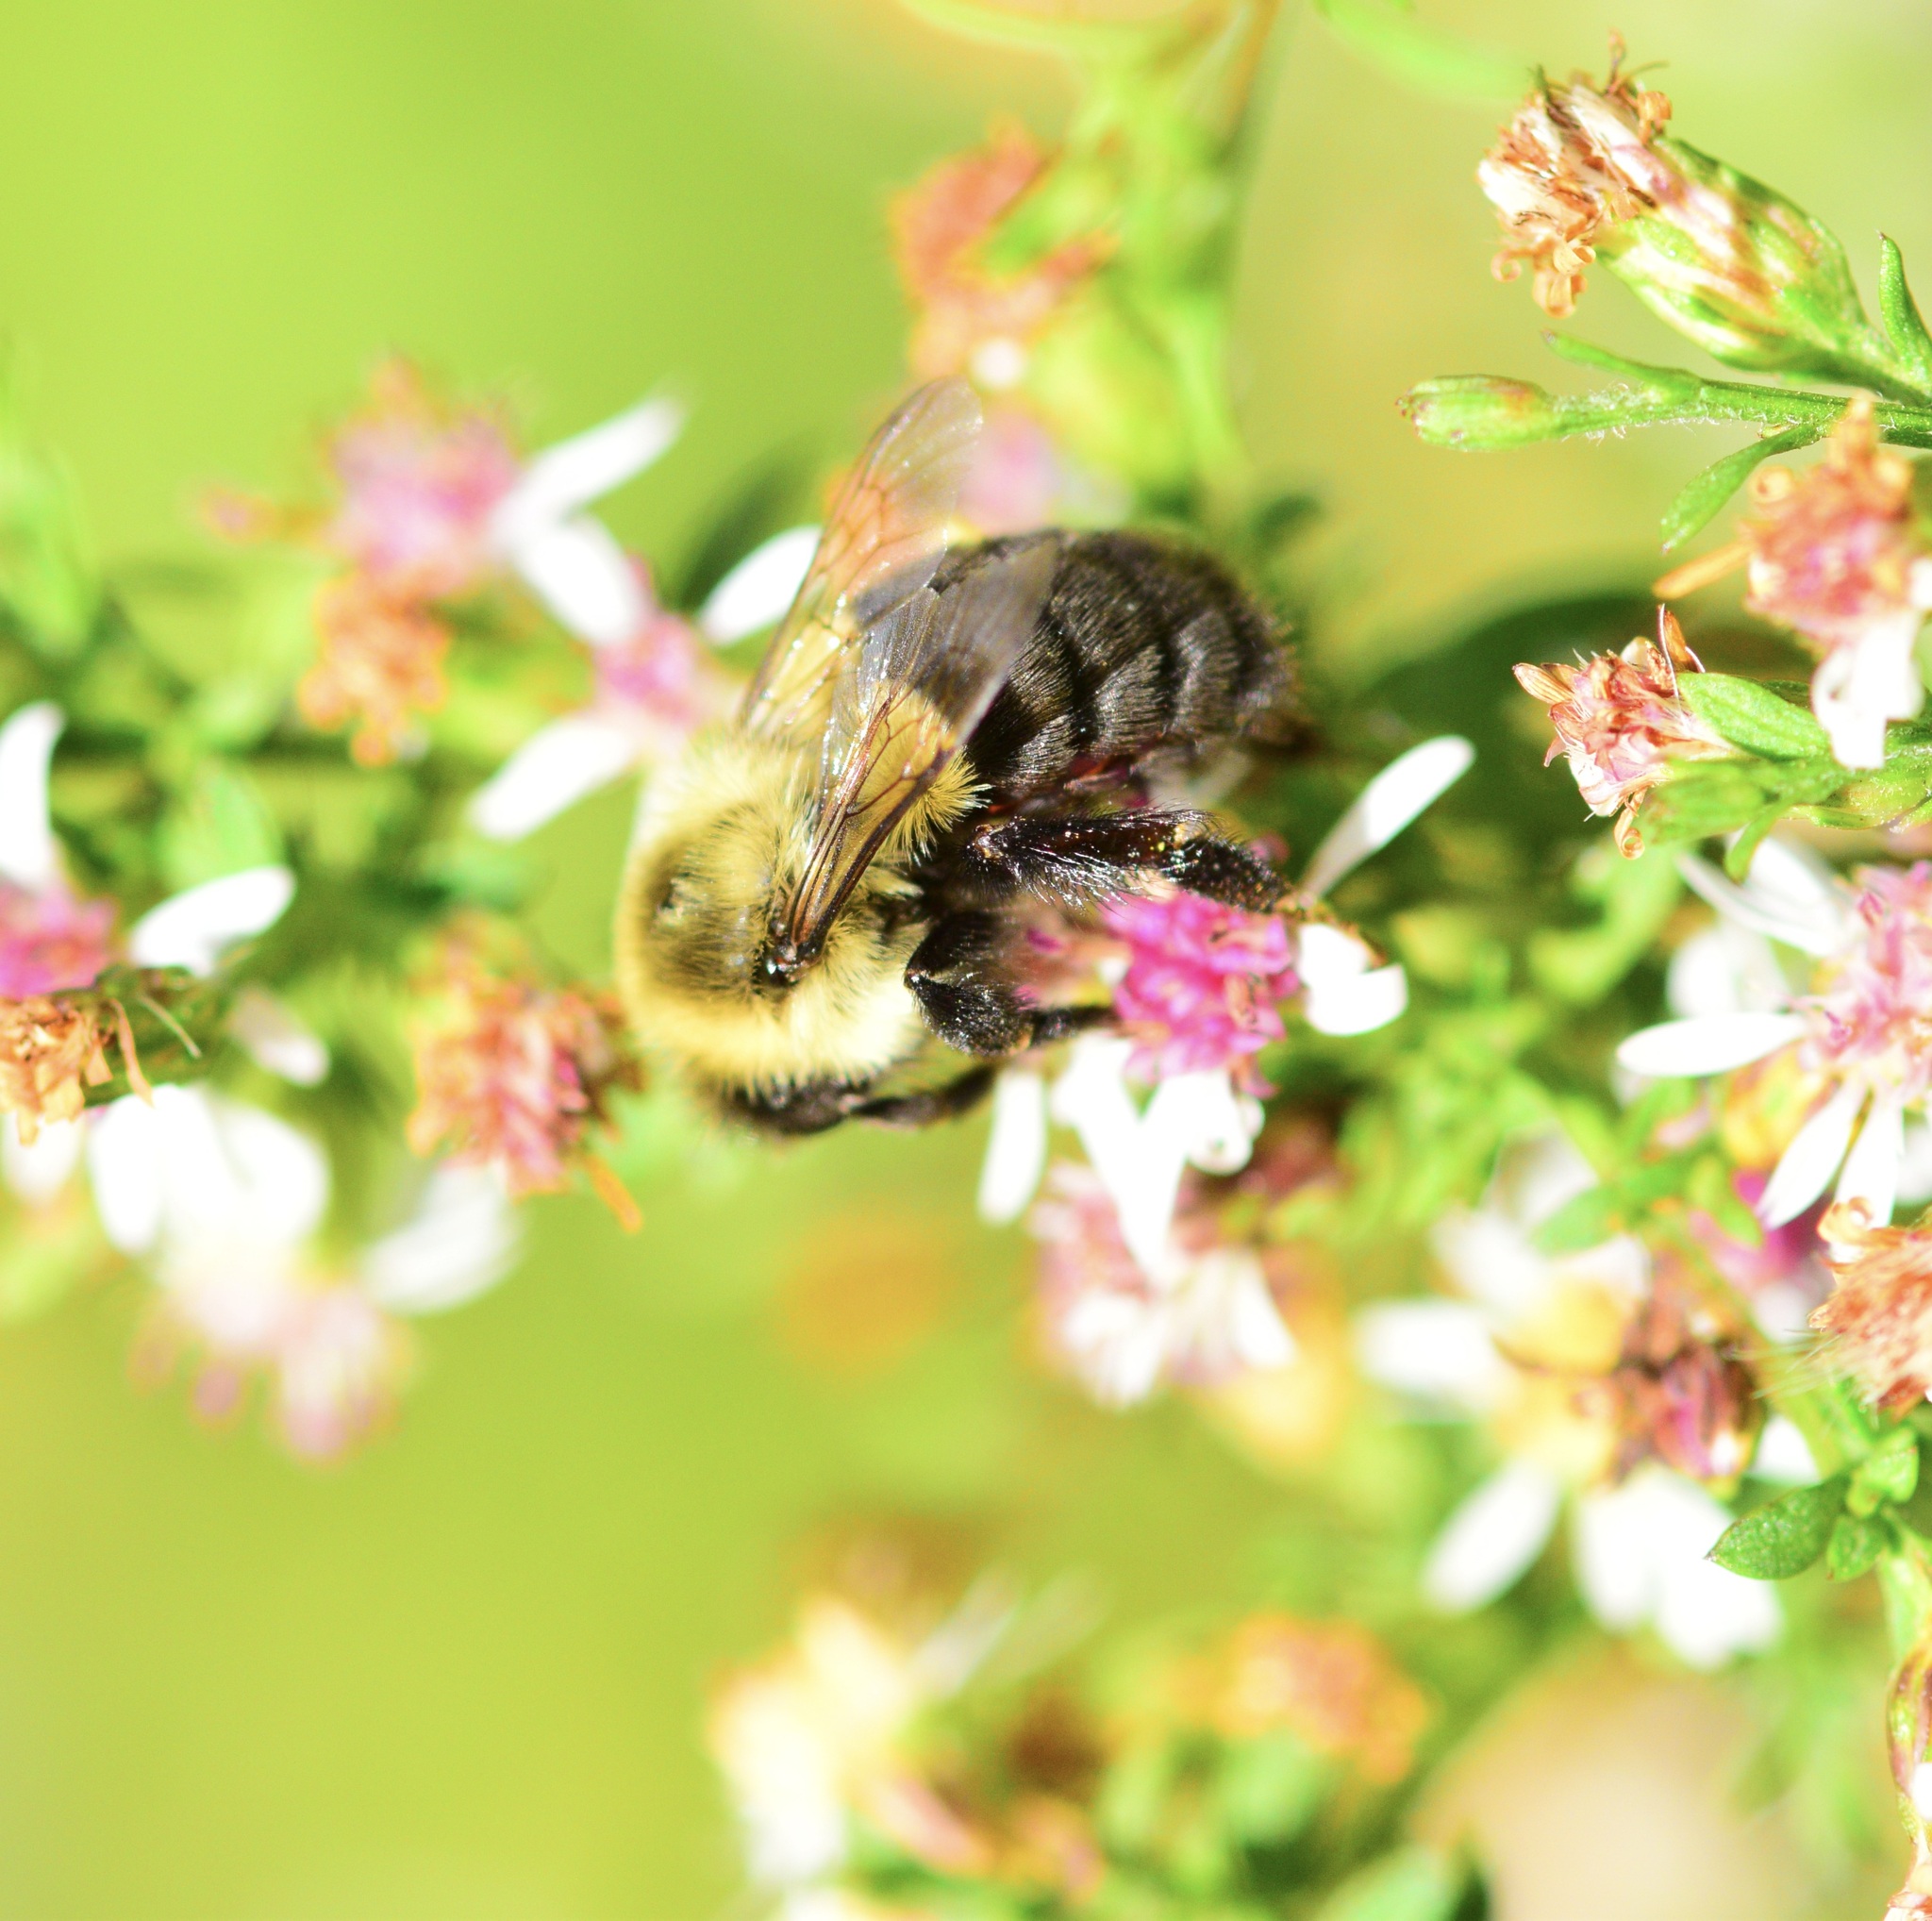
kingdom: Animalia
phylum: Arthropoda
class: Insecta
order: Hymenoptera
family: Apidae
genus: Bombus
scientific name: Bombus impatiens
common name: Common eastern bumble bee
